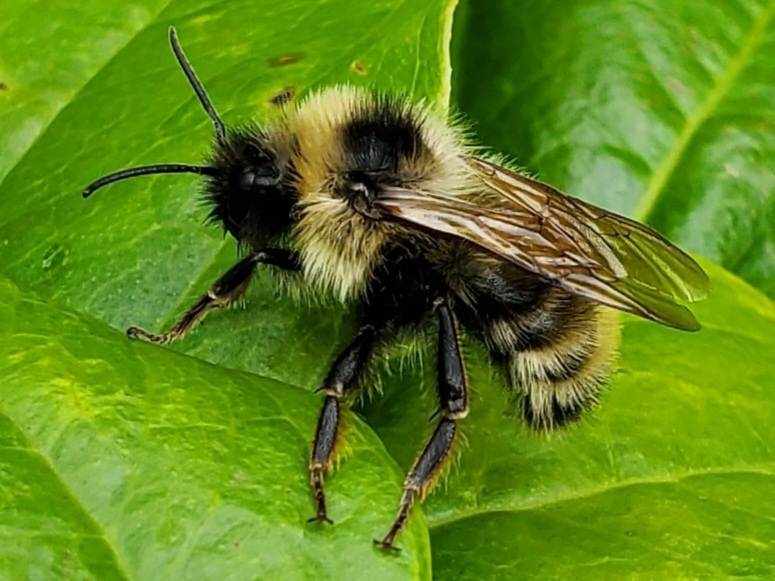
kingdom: Animalia
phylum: Arthropoda
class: Insecta
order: Hymenoptera
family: Apidae
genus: Bombus
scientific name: Bombus flavidus
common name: Fernald cuckoo bumble bee
